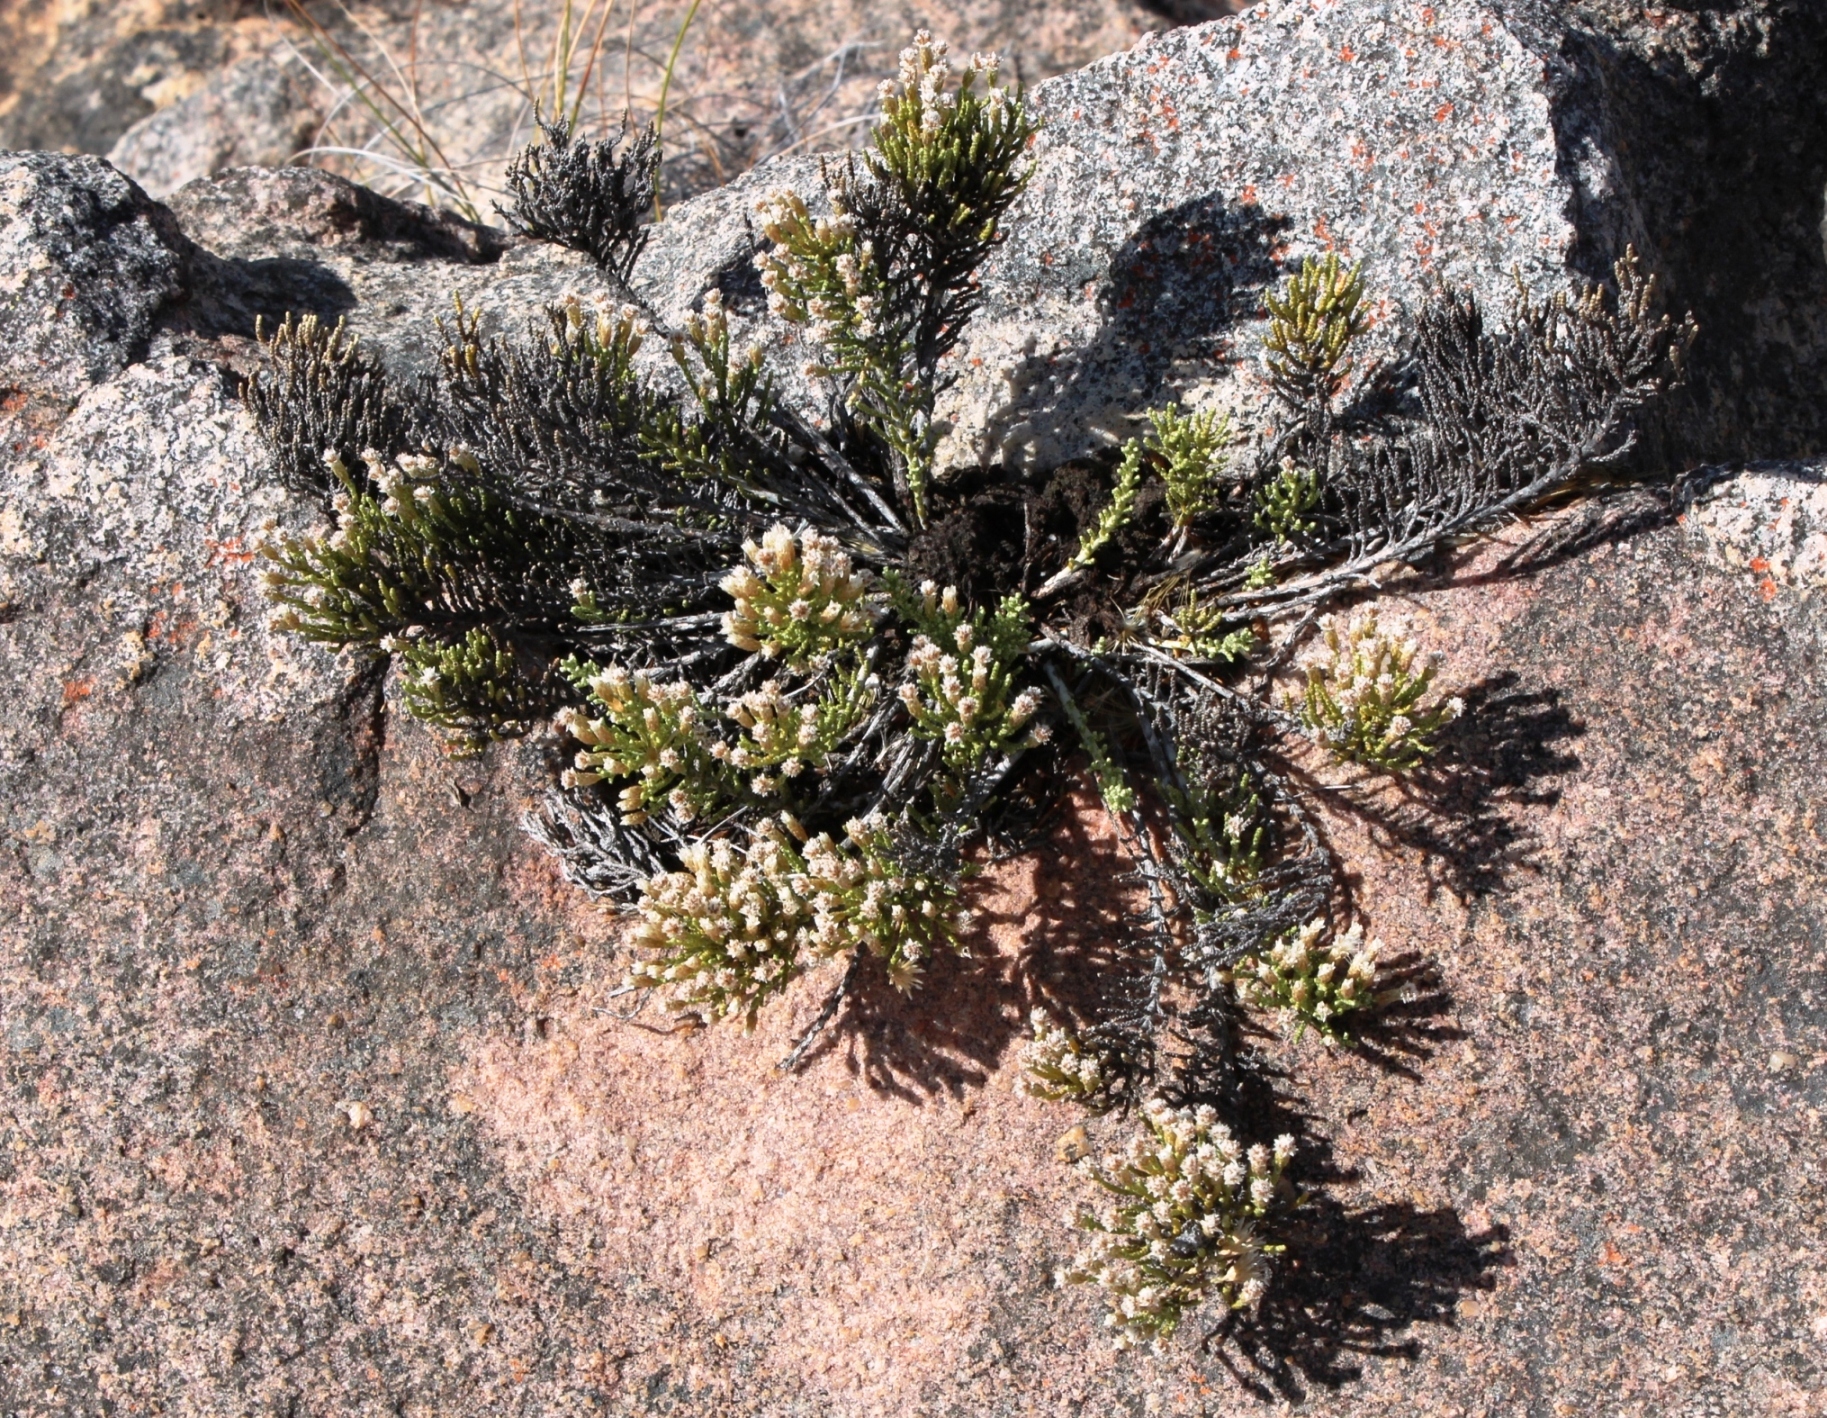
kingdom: Plantae
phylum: Tracheophyta
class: Magnoliopsida
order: Asterales
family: Asteraceae
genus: Dolichothrix
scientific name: Dolichothrix ericoides
